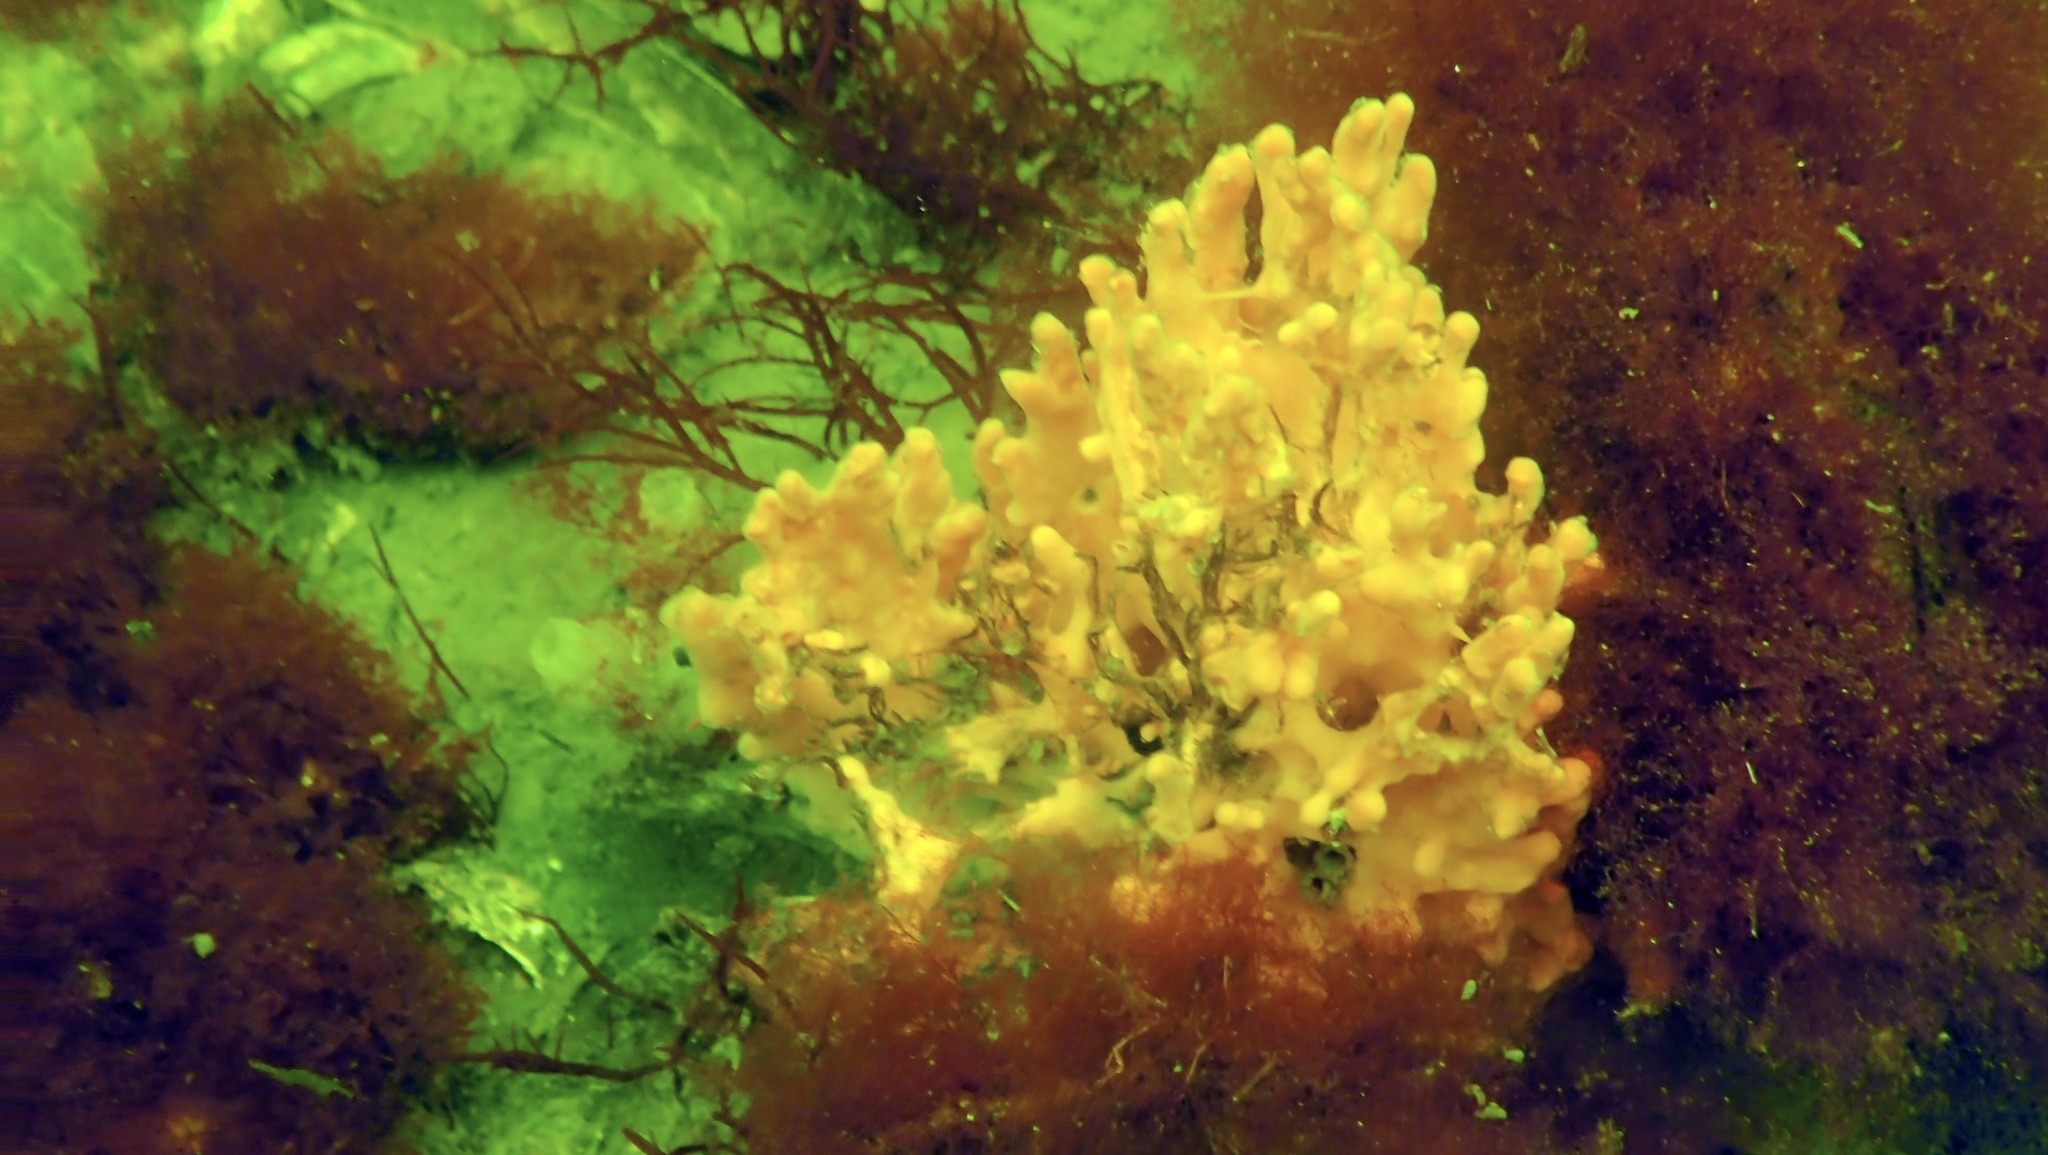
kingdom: Animalia
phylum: Porifera
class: Demospongiae
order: Suberitida
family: Halichondriidae
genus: Halichondria
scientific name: Halichondria panicea
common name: Breadcrumb sponge
